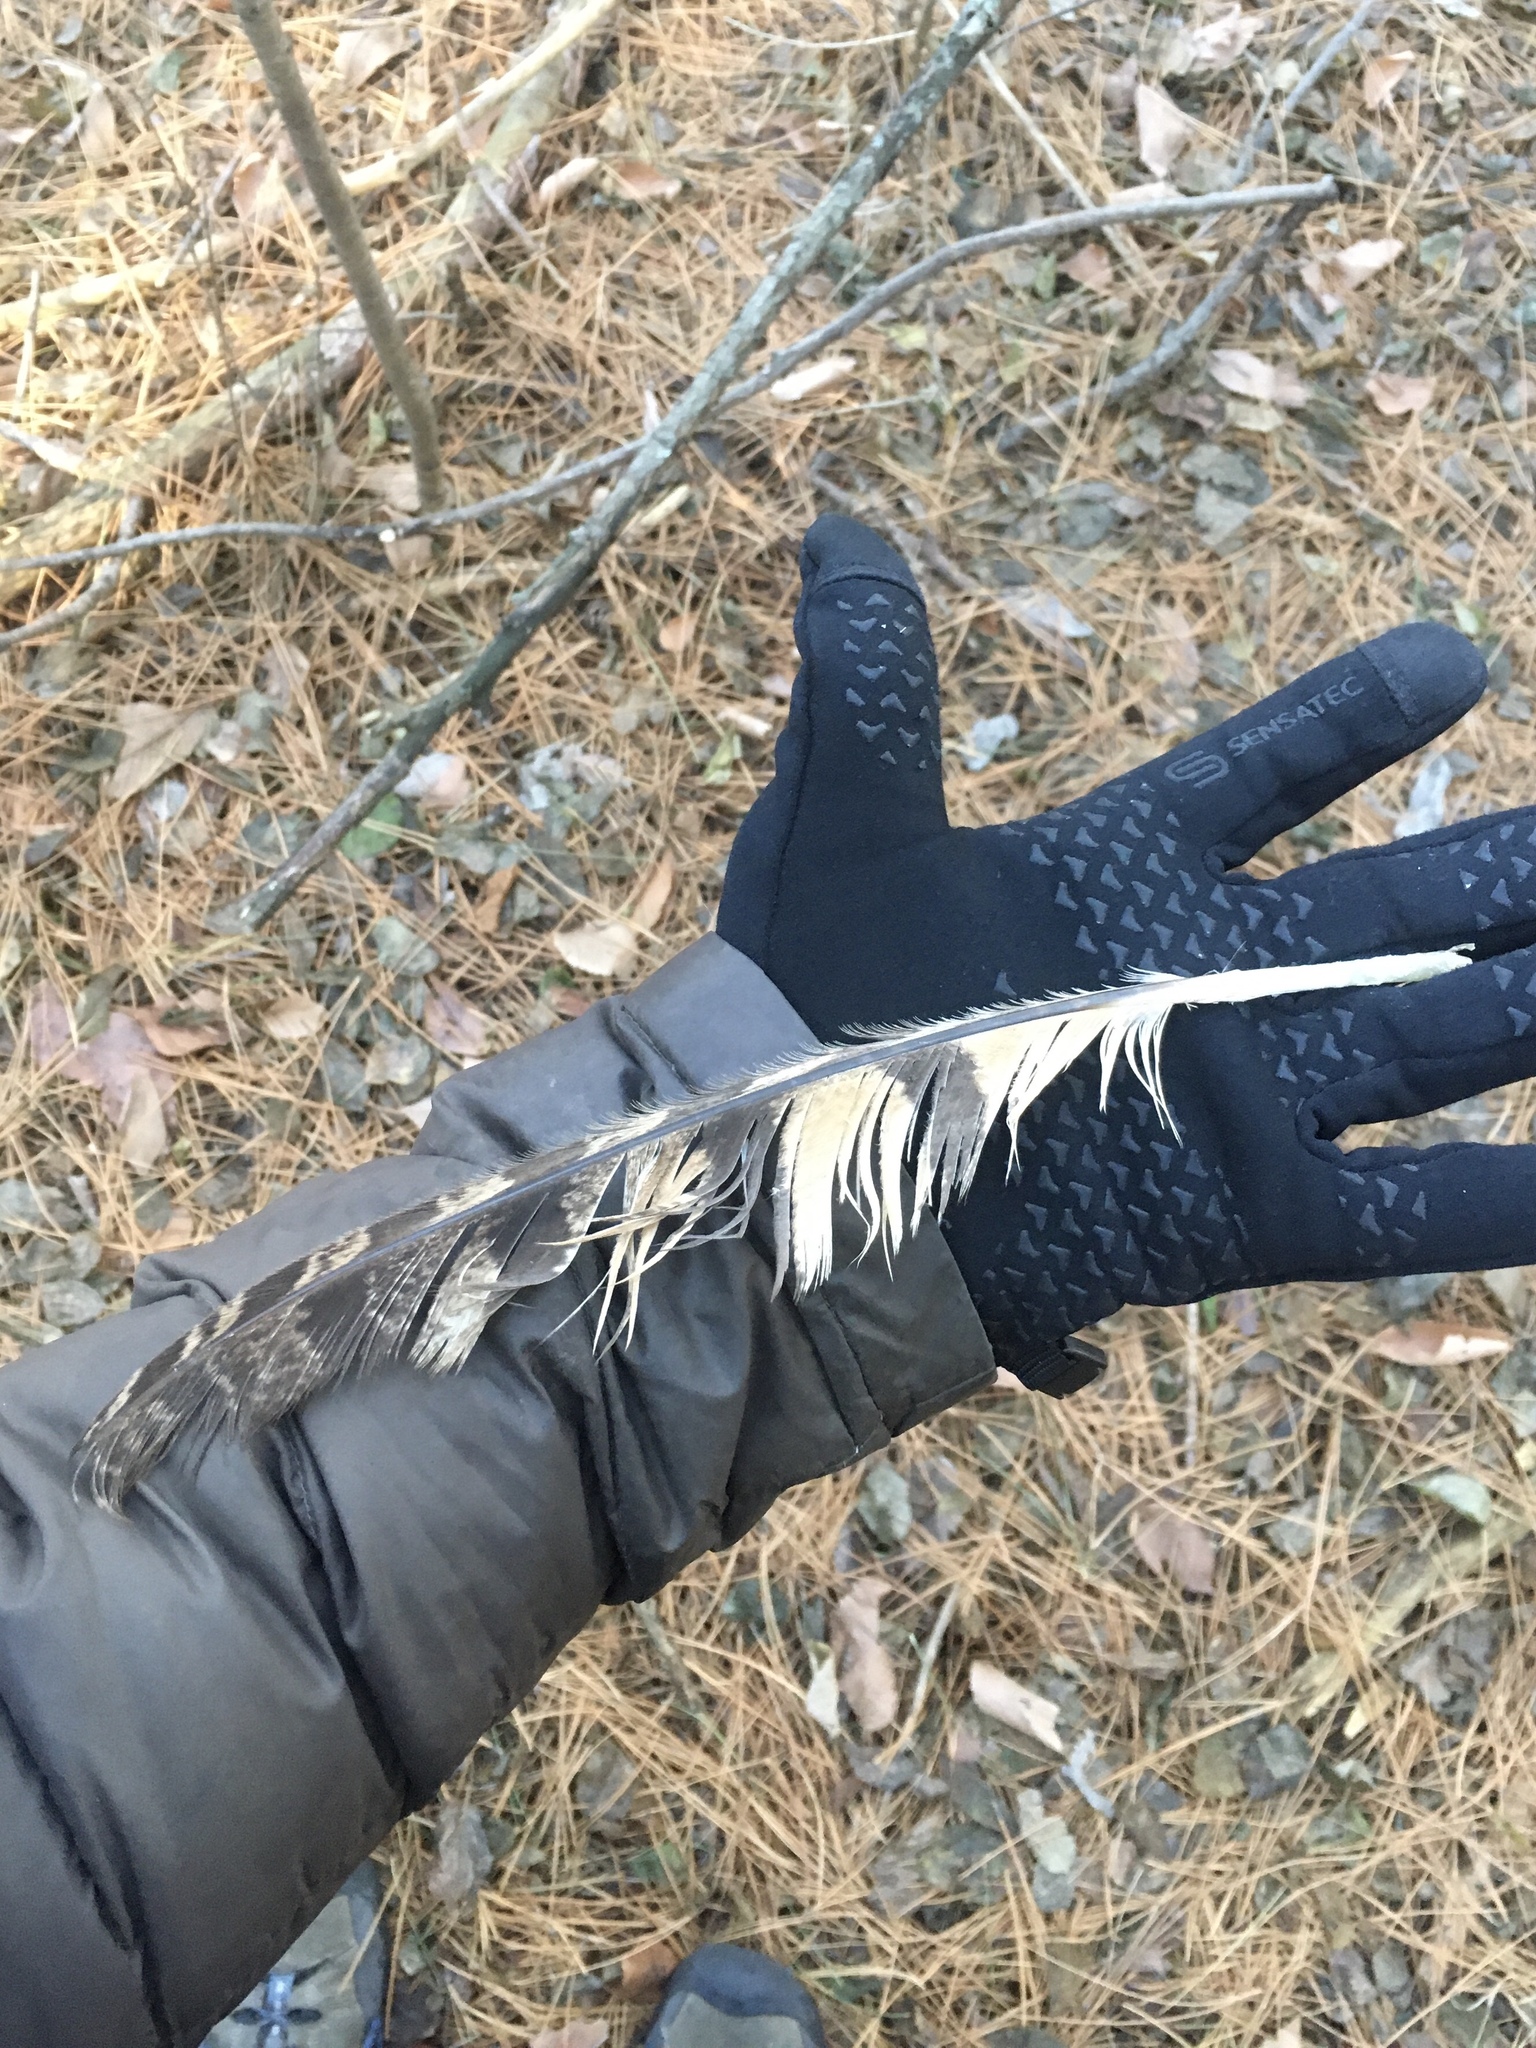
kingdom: Animalia
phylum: Chordata
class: Aves
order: Strigiformes
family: Strigidae
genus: Bubo
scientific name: Bubo virginianus
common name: Great horned owl
